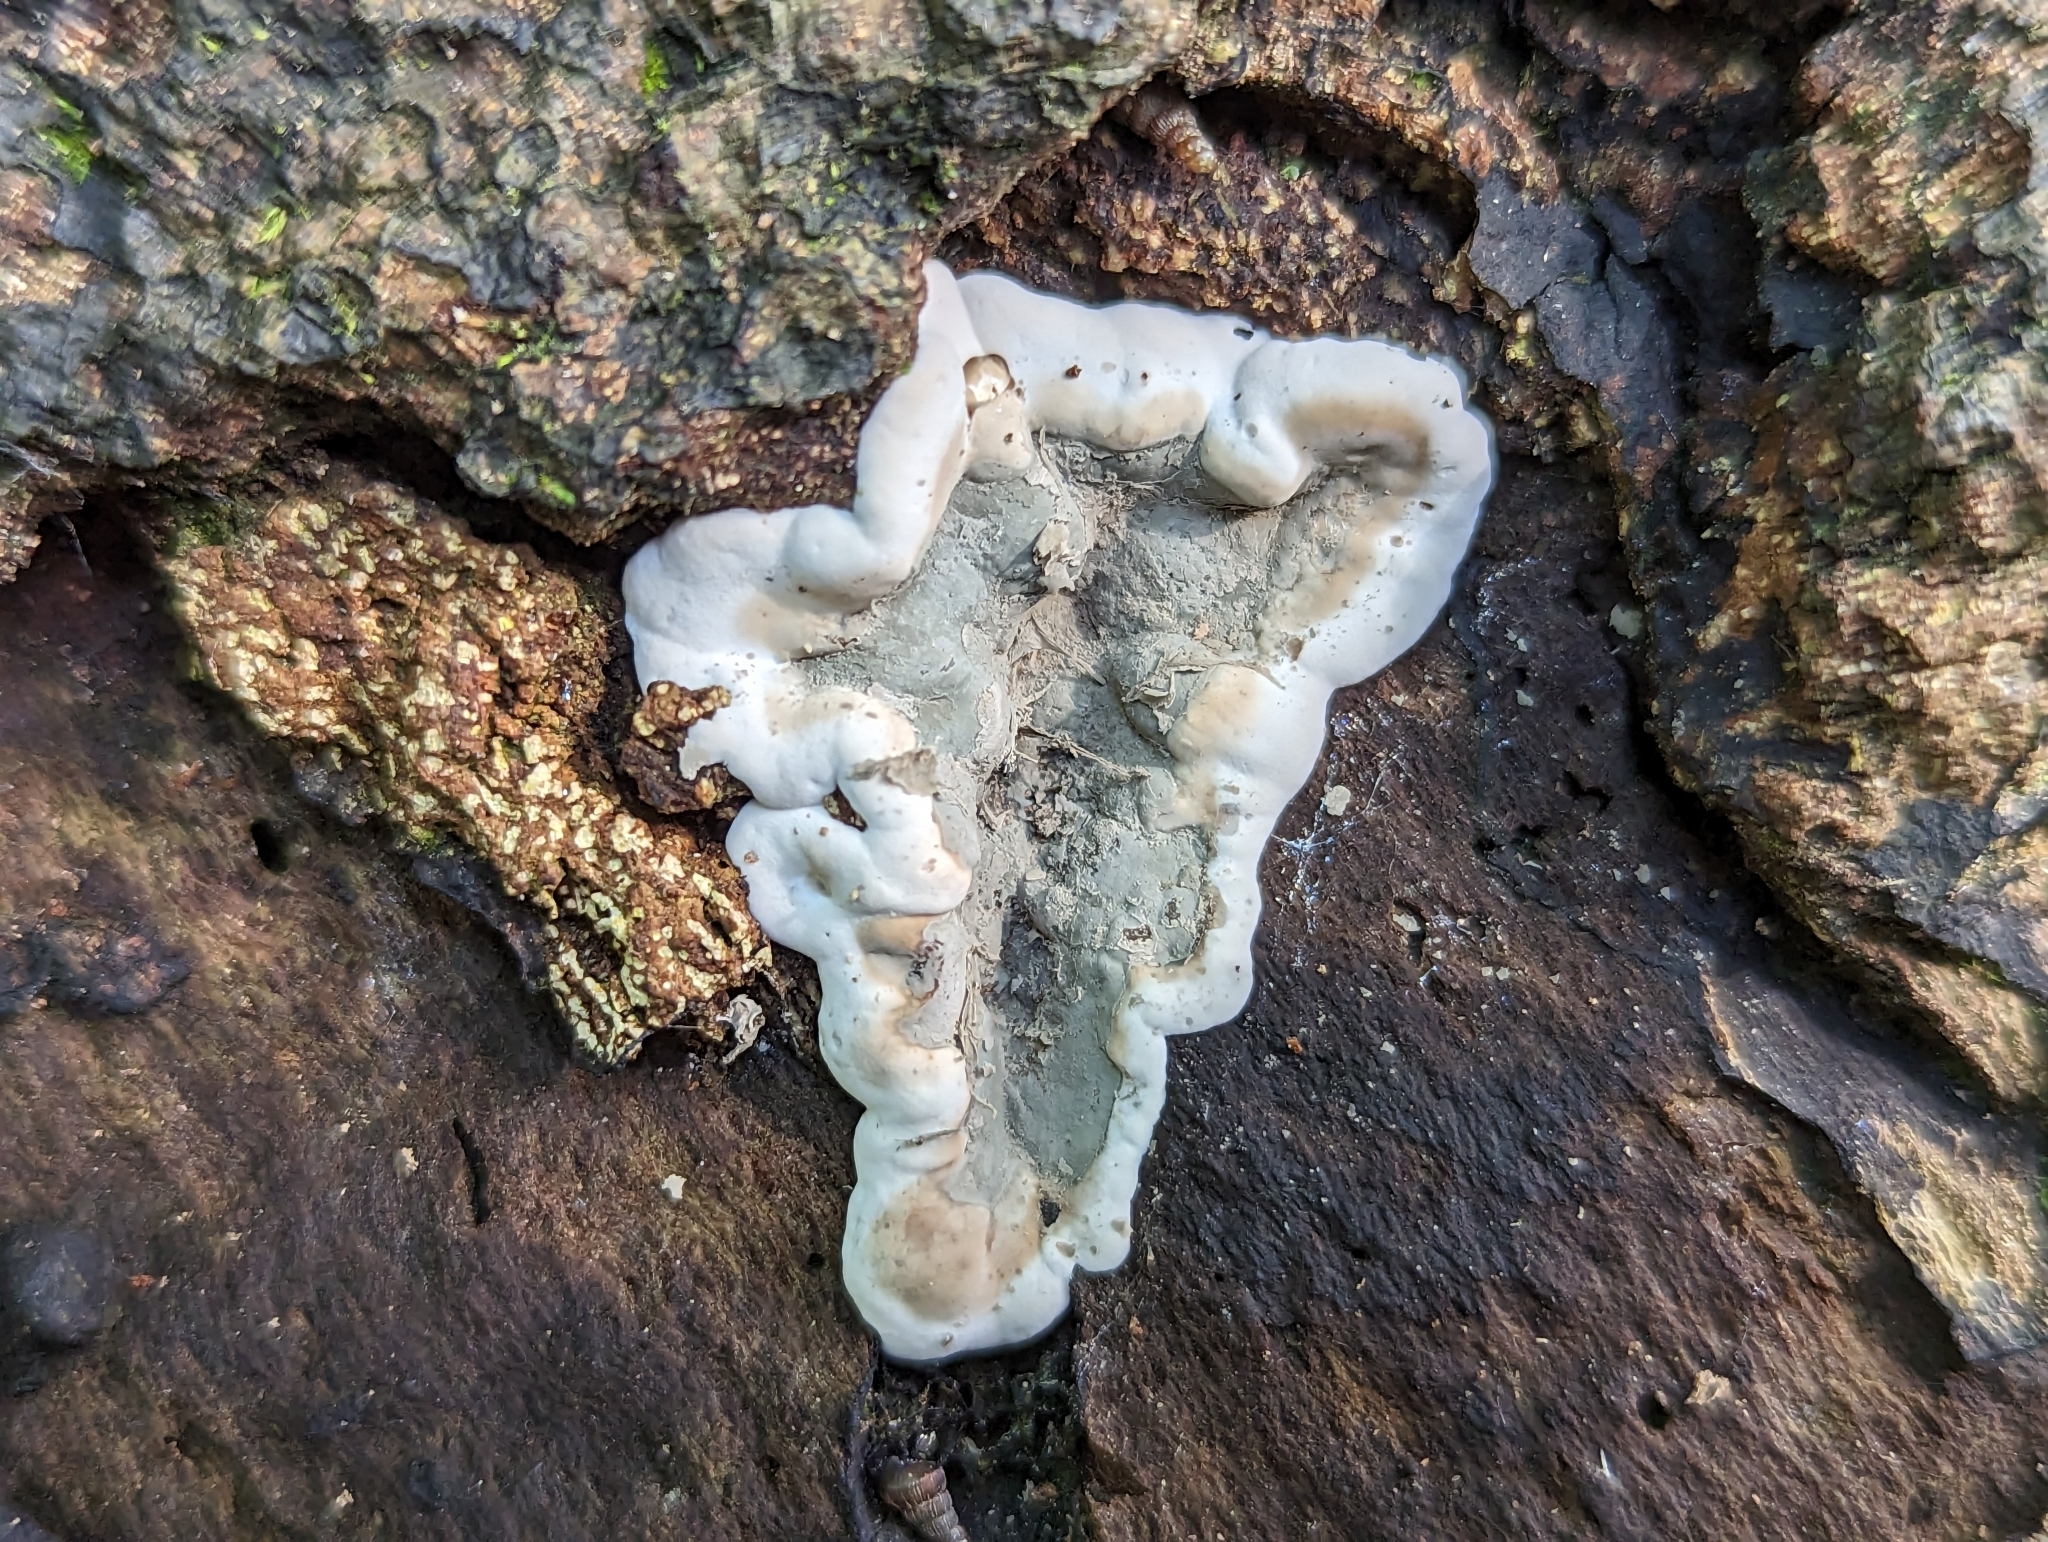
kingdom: Fungi
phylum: Ascomycota
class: Sordariomycetes
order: Xylariales
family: Xylariaceae
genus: Kretzschmaria
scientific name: Kretzschmaria deusta
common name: Brittle cinder
